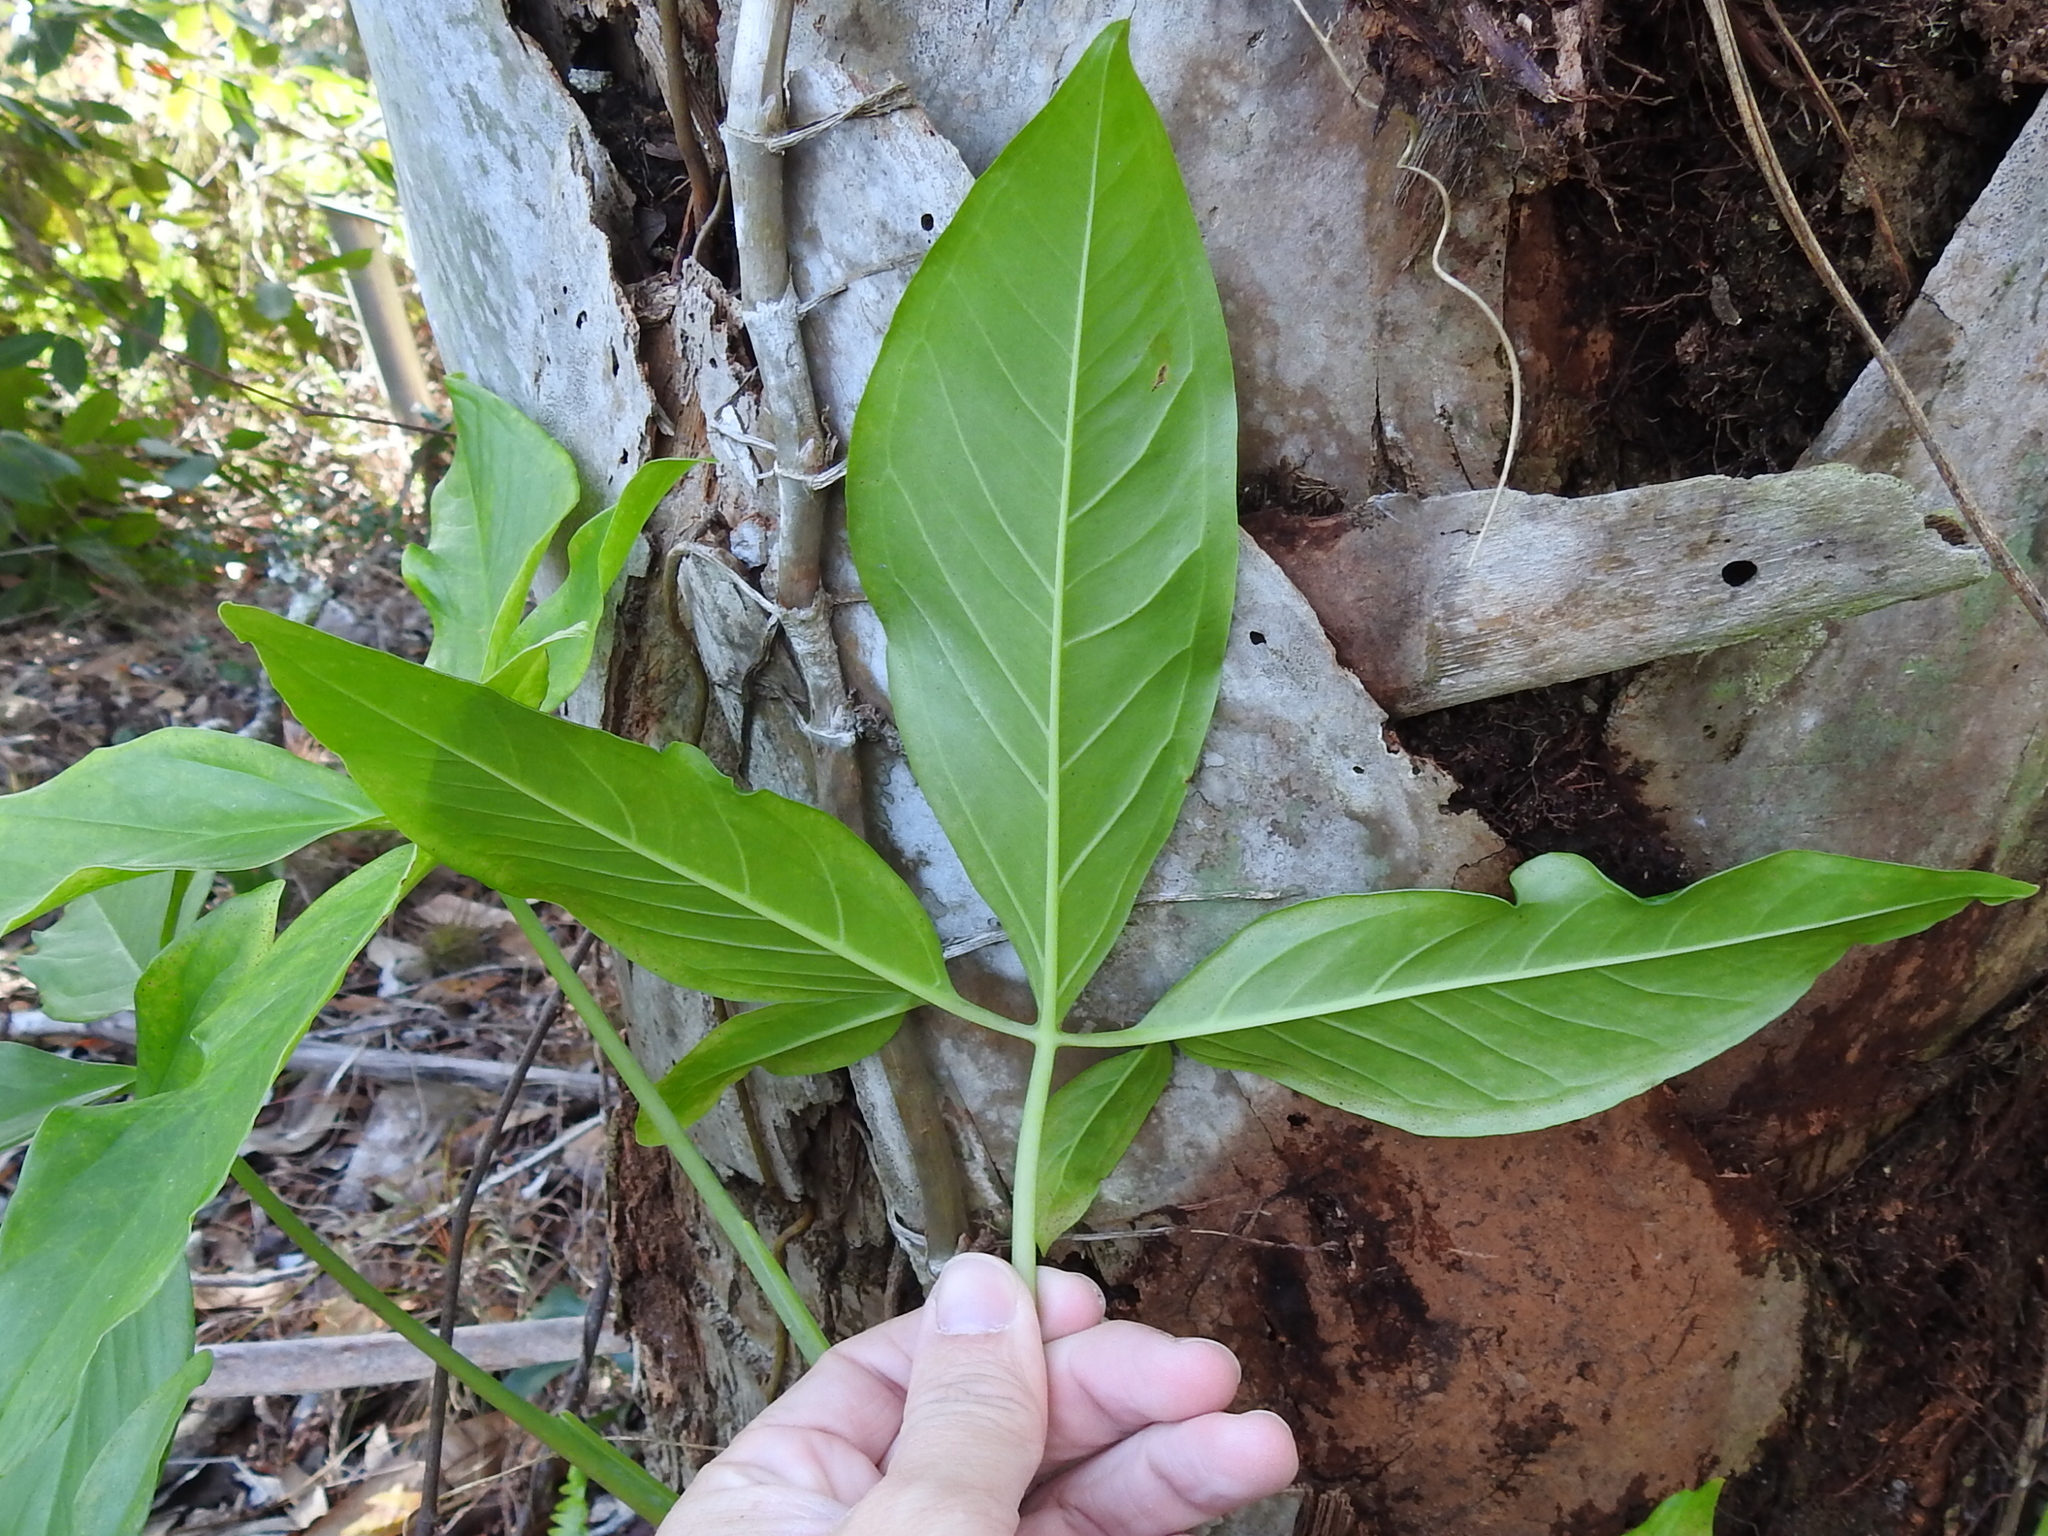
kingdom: Plantae
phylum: Tracheophyta
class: Liliopsida
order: Alismatales
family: Araceae
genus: Syngonium
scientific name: Syngonium podophyllum
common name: American evergreen
